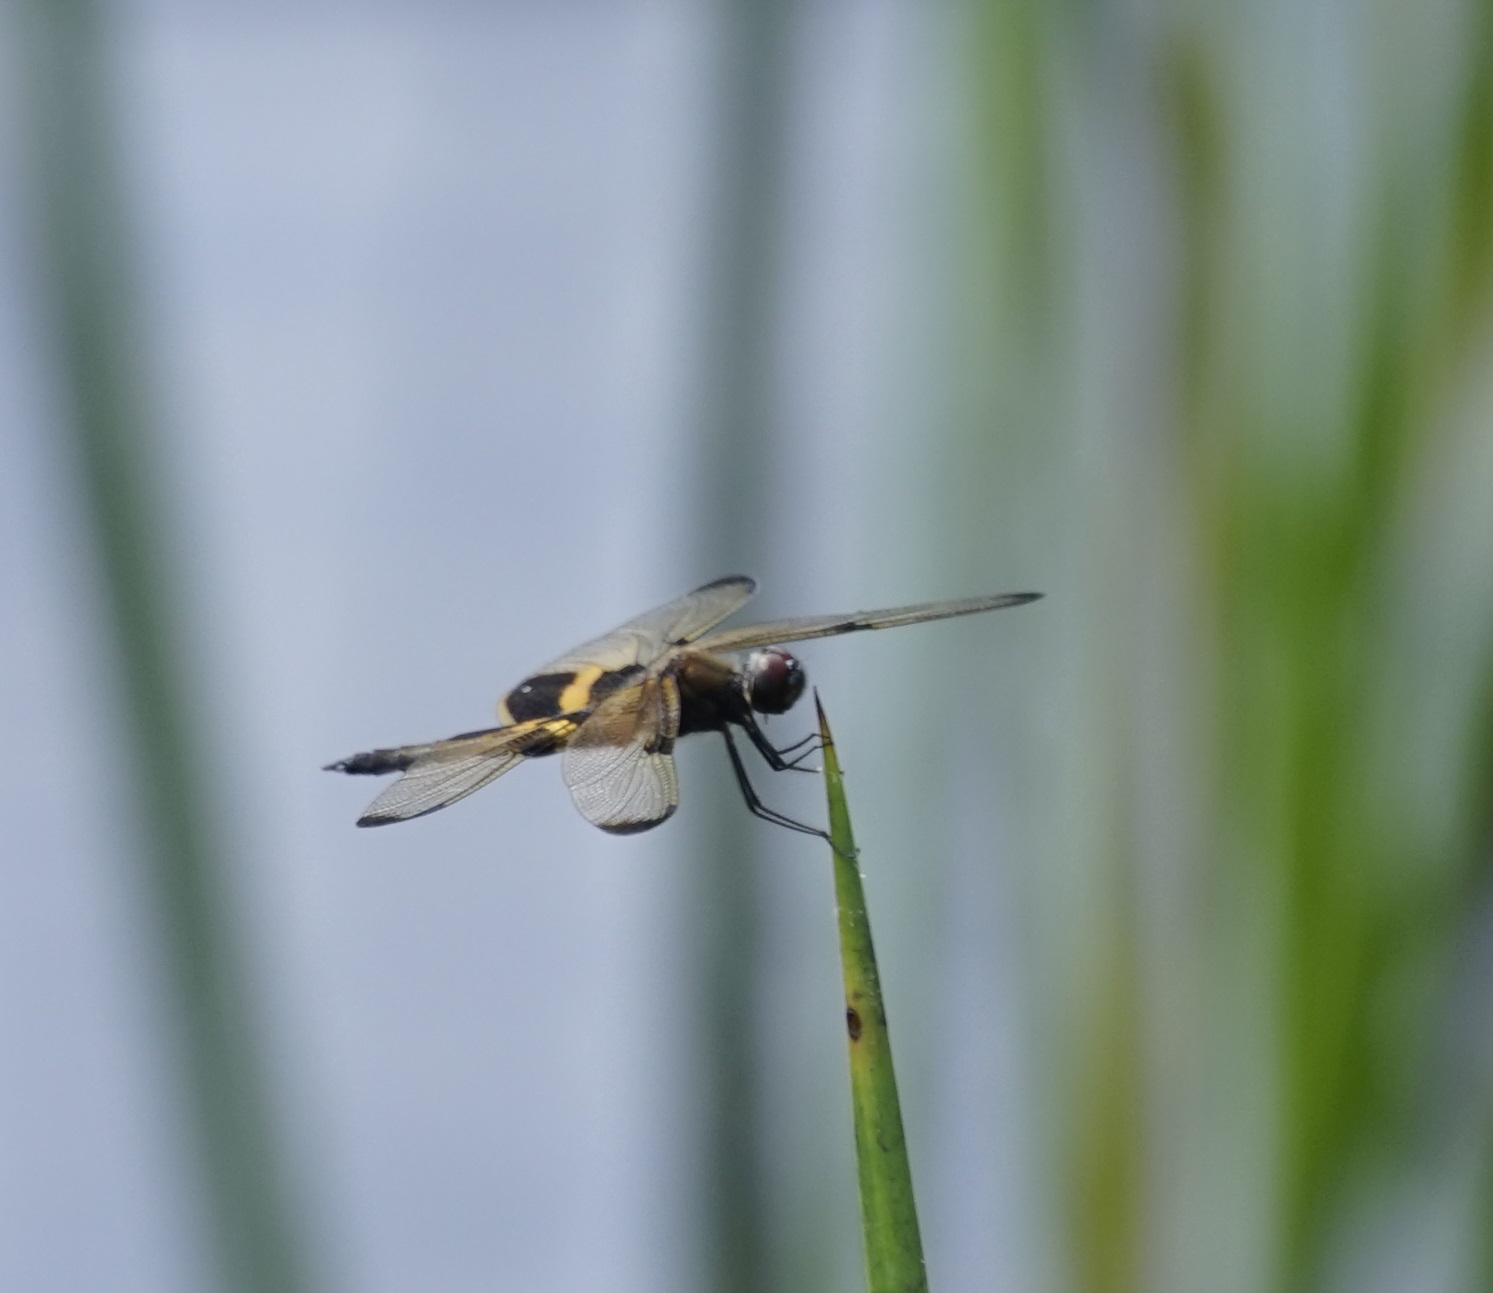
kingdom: Animalia
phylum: Arthropoda
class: Insecta
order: Odonata
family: Libellulidae
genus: Rhyothemis
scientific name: Rhyothemis phyllis
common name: Yellow-barred flutterer
